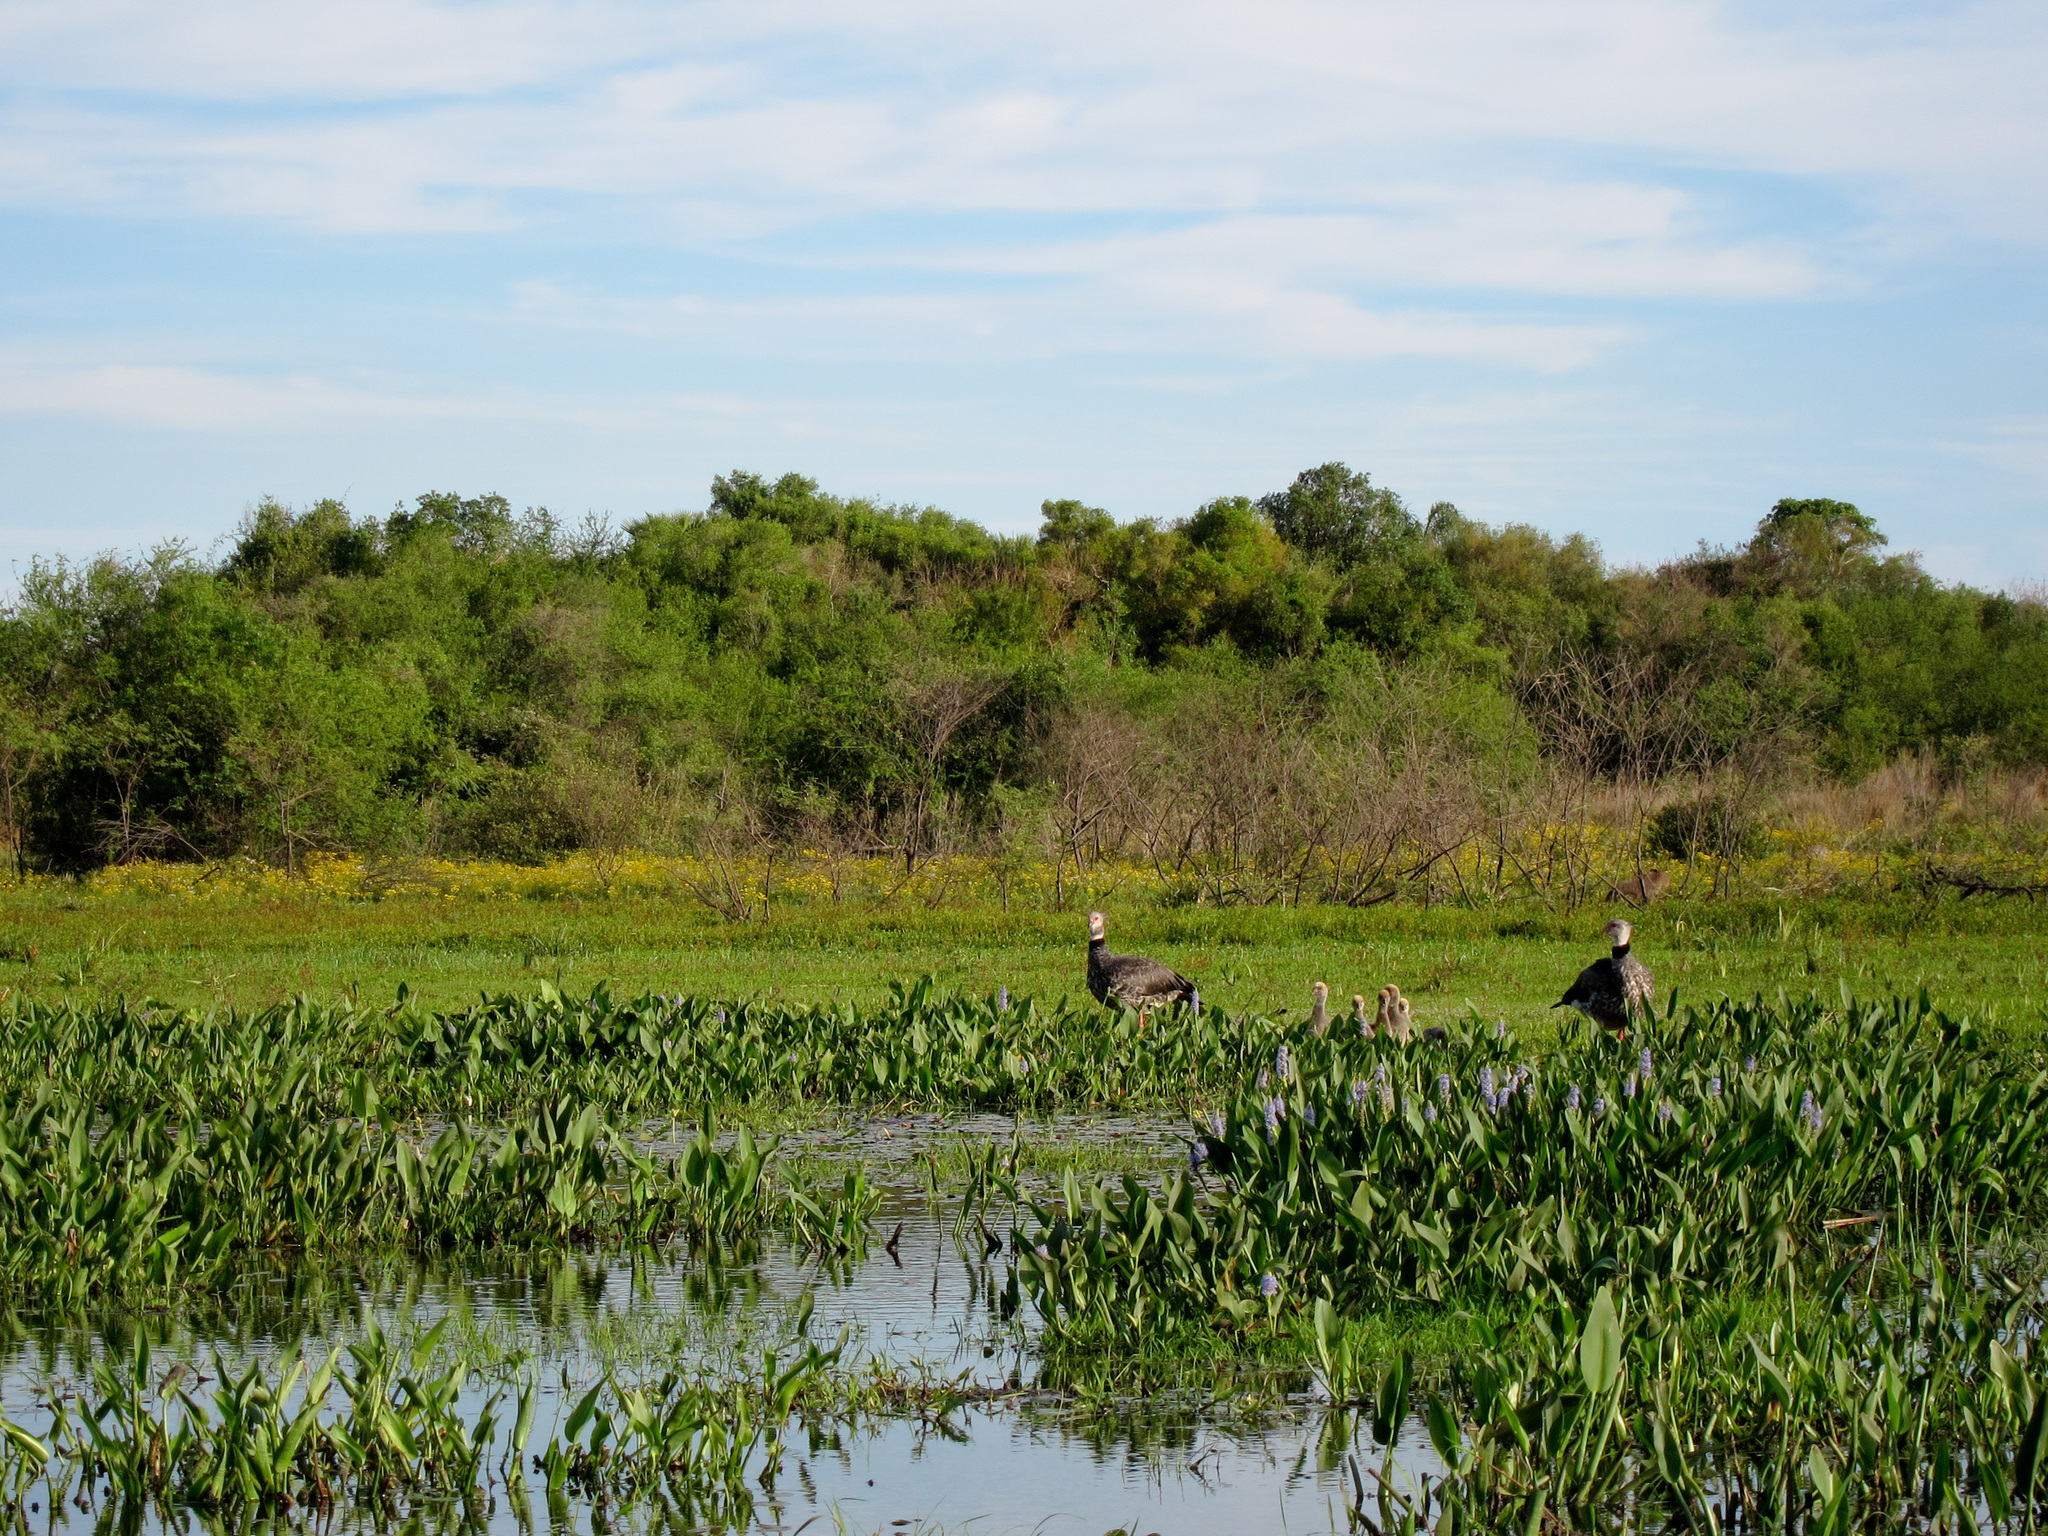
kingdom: Animalia
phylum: Chordata
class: Aves
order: Anseriformes
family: Anhimidae
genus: Chauna
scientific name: Chauna torquata
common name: Southern screamer
